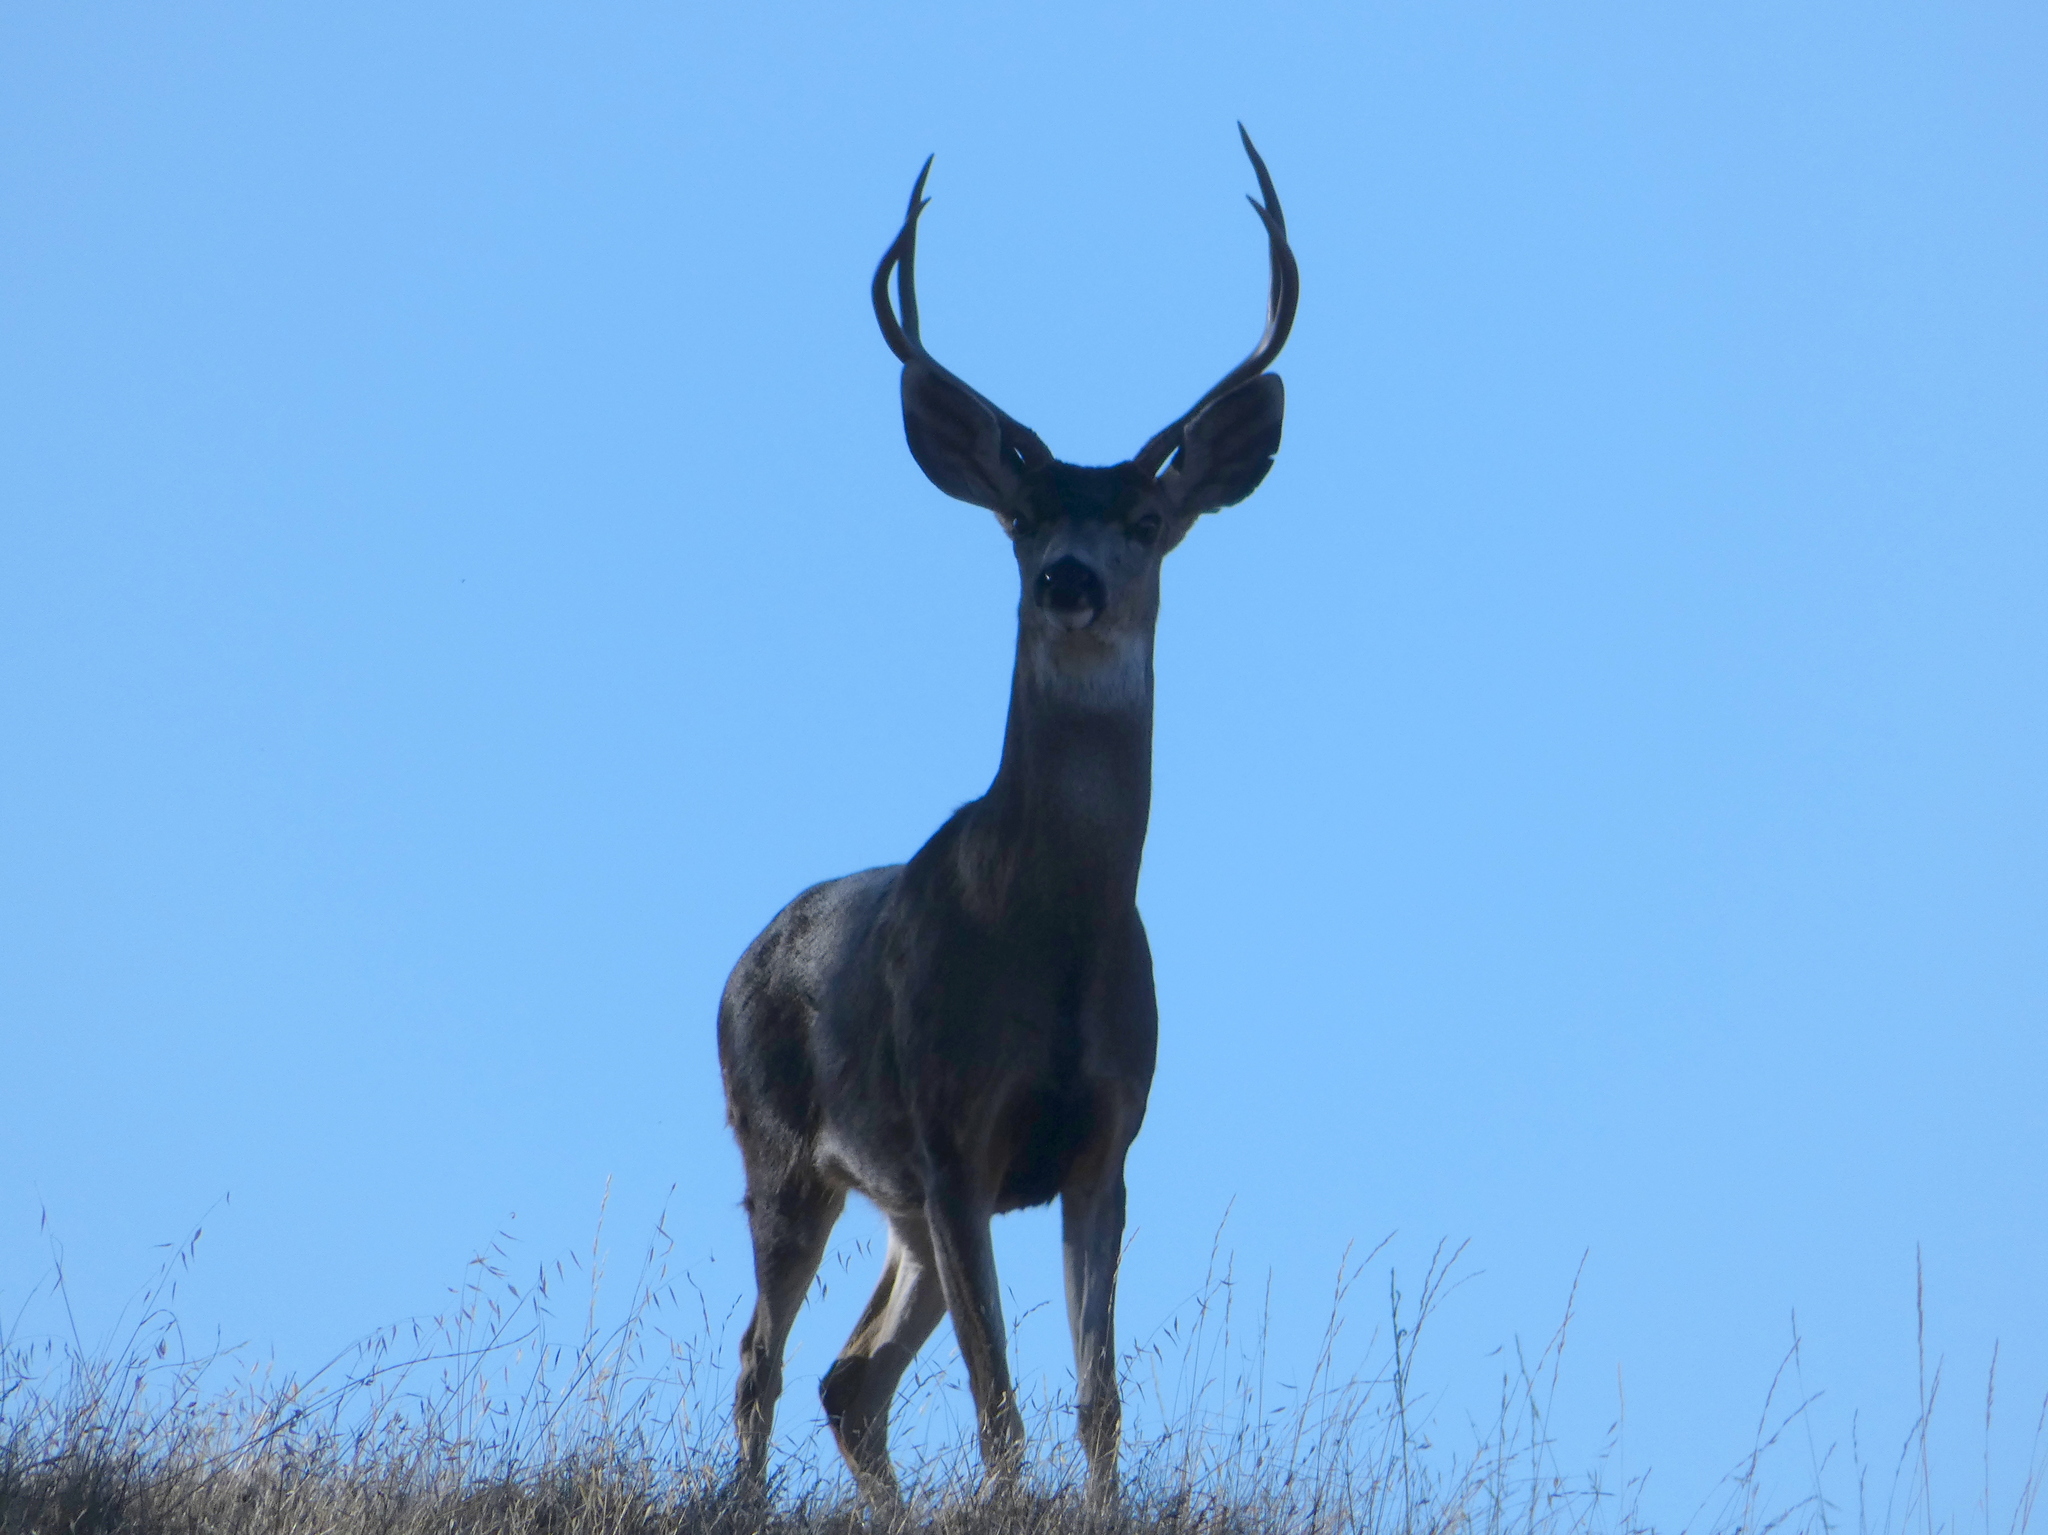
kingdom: Animalia
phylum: Chordata
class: Mammalia
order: Artiodactyla
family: Cervidae
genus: Odocoileus
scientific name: Odocoileus hemionus
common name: Mule deer
